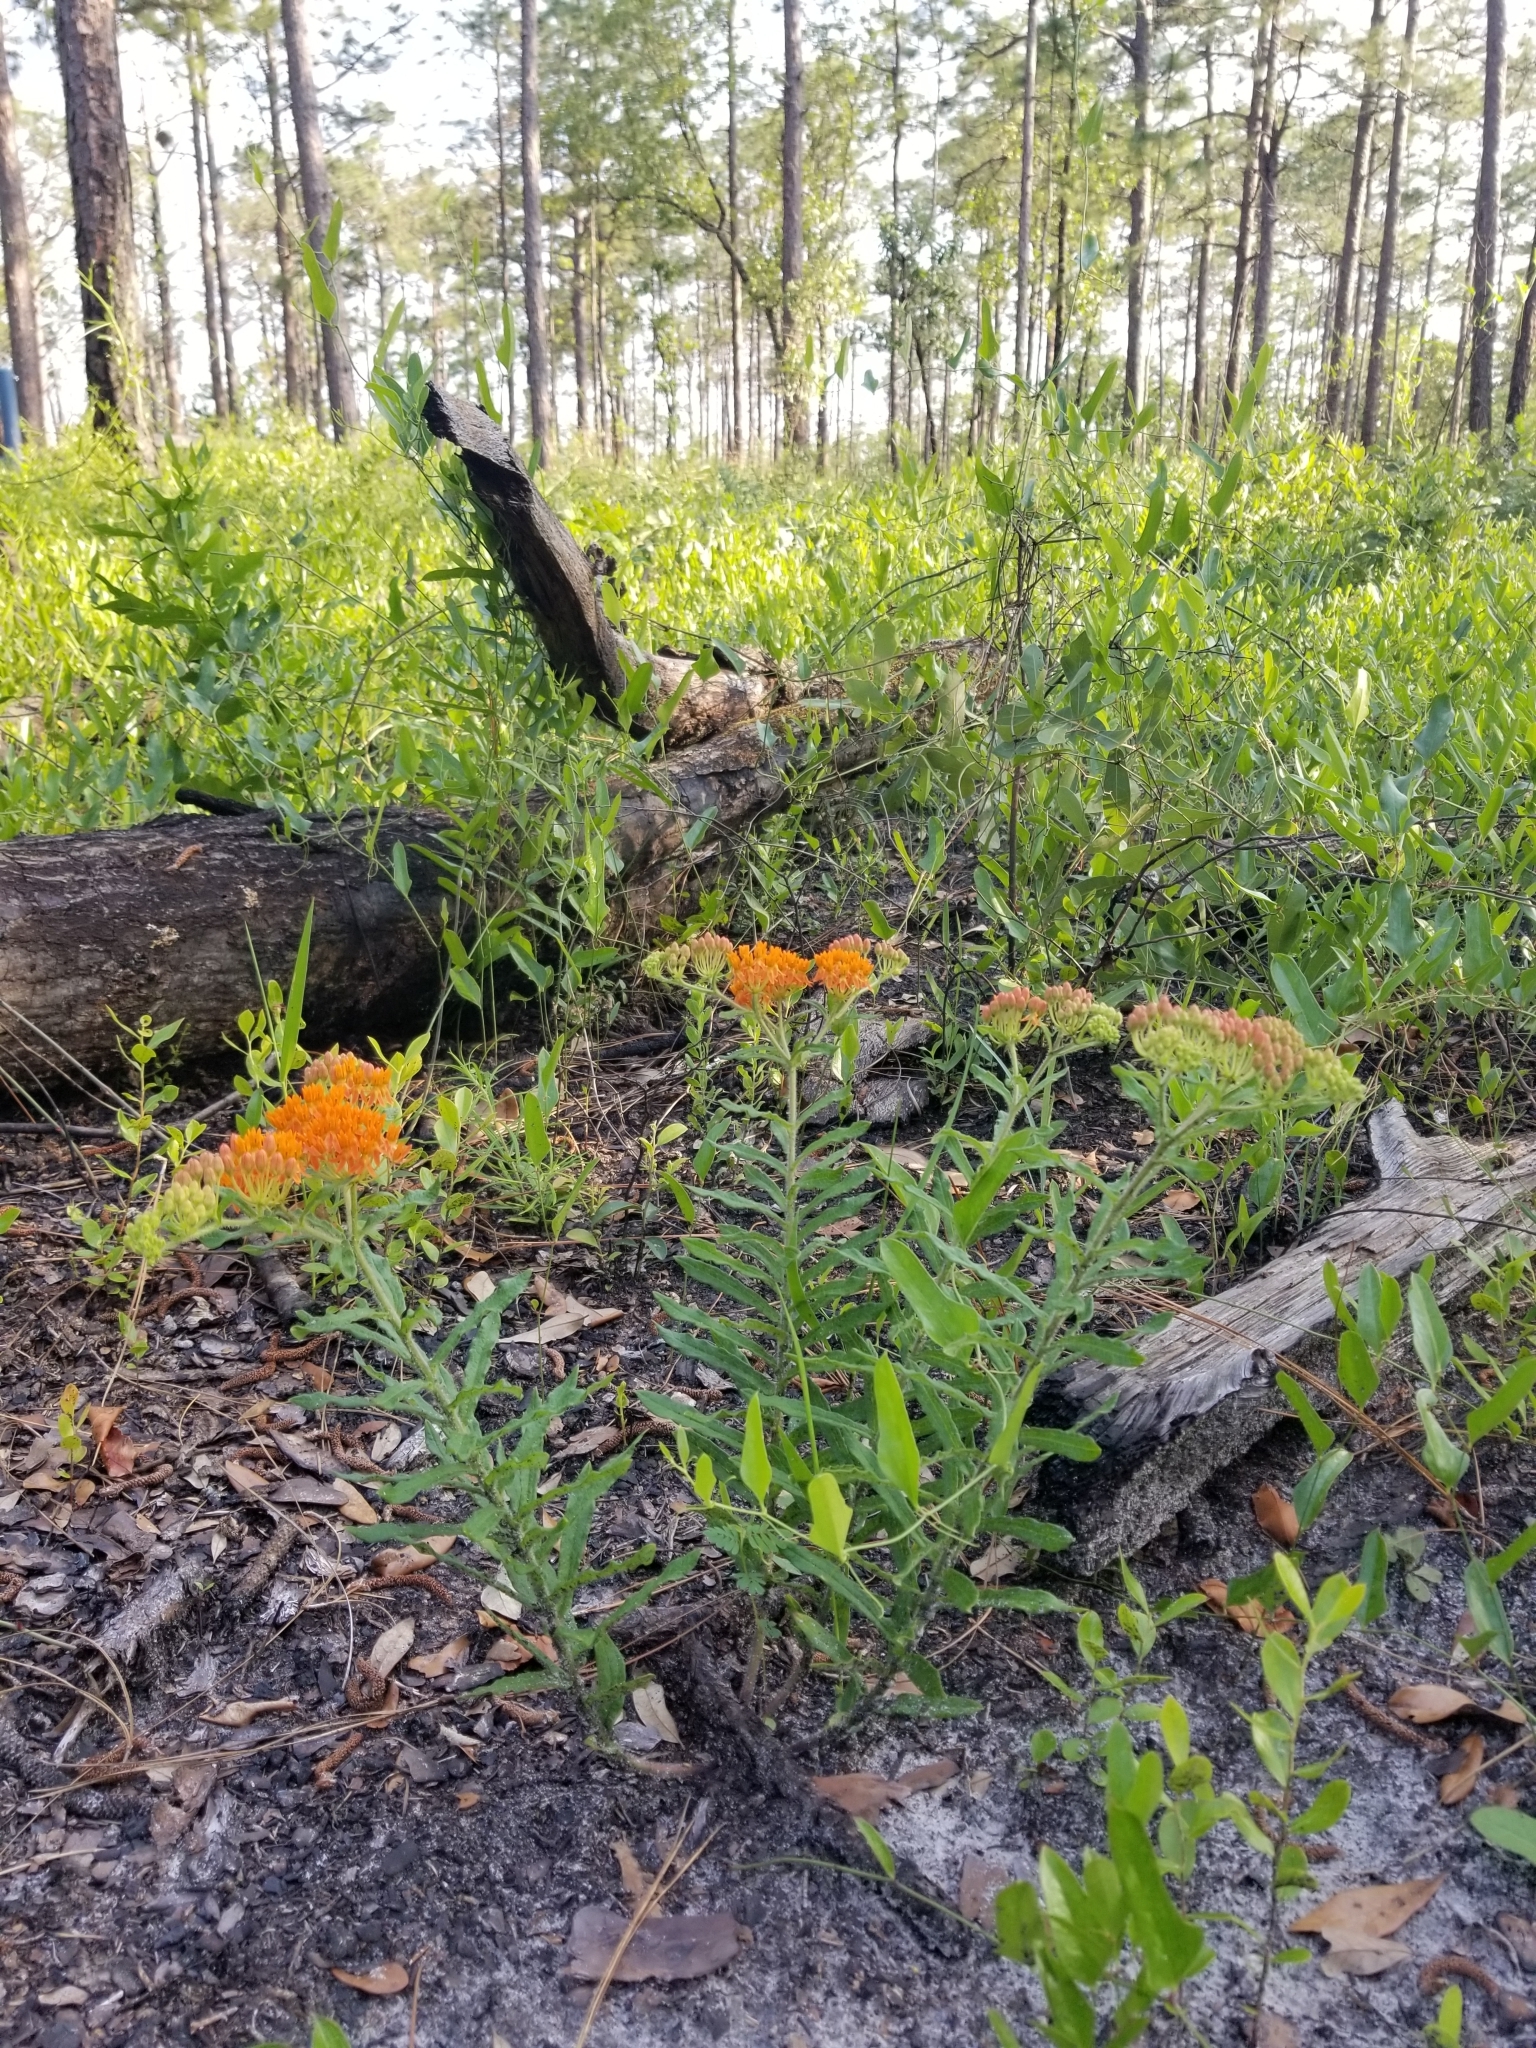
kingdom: Plantae
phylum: Tracheophyta
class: Magnoliopsida
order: Gentianales
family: Apocynaceae
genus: Asclepias
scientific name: Asclepias tuberosa
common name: Butterfly milkweed
